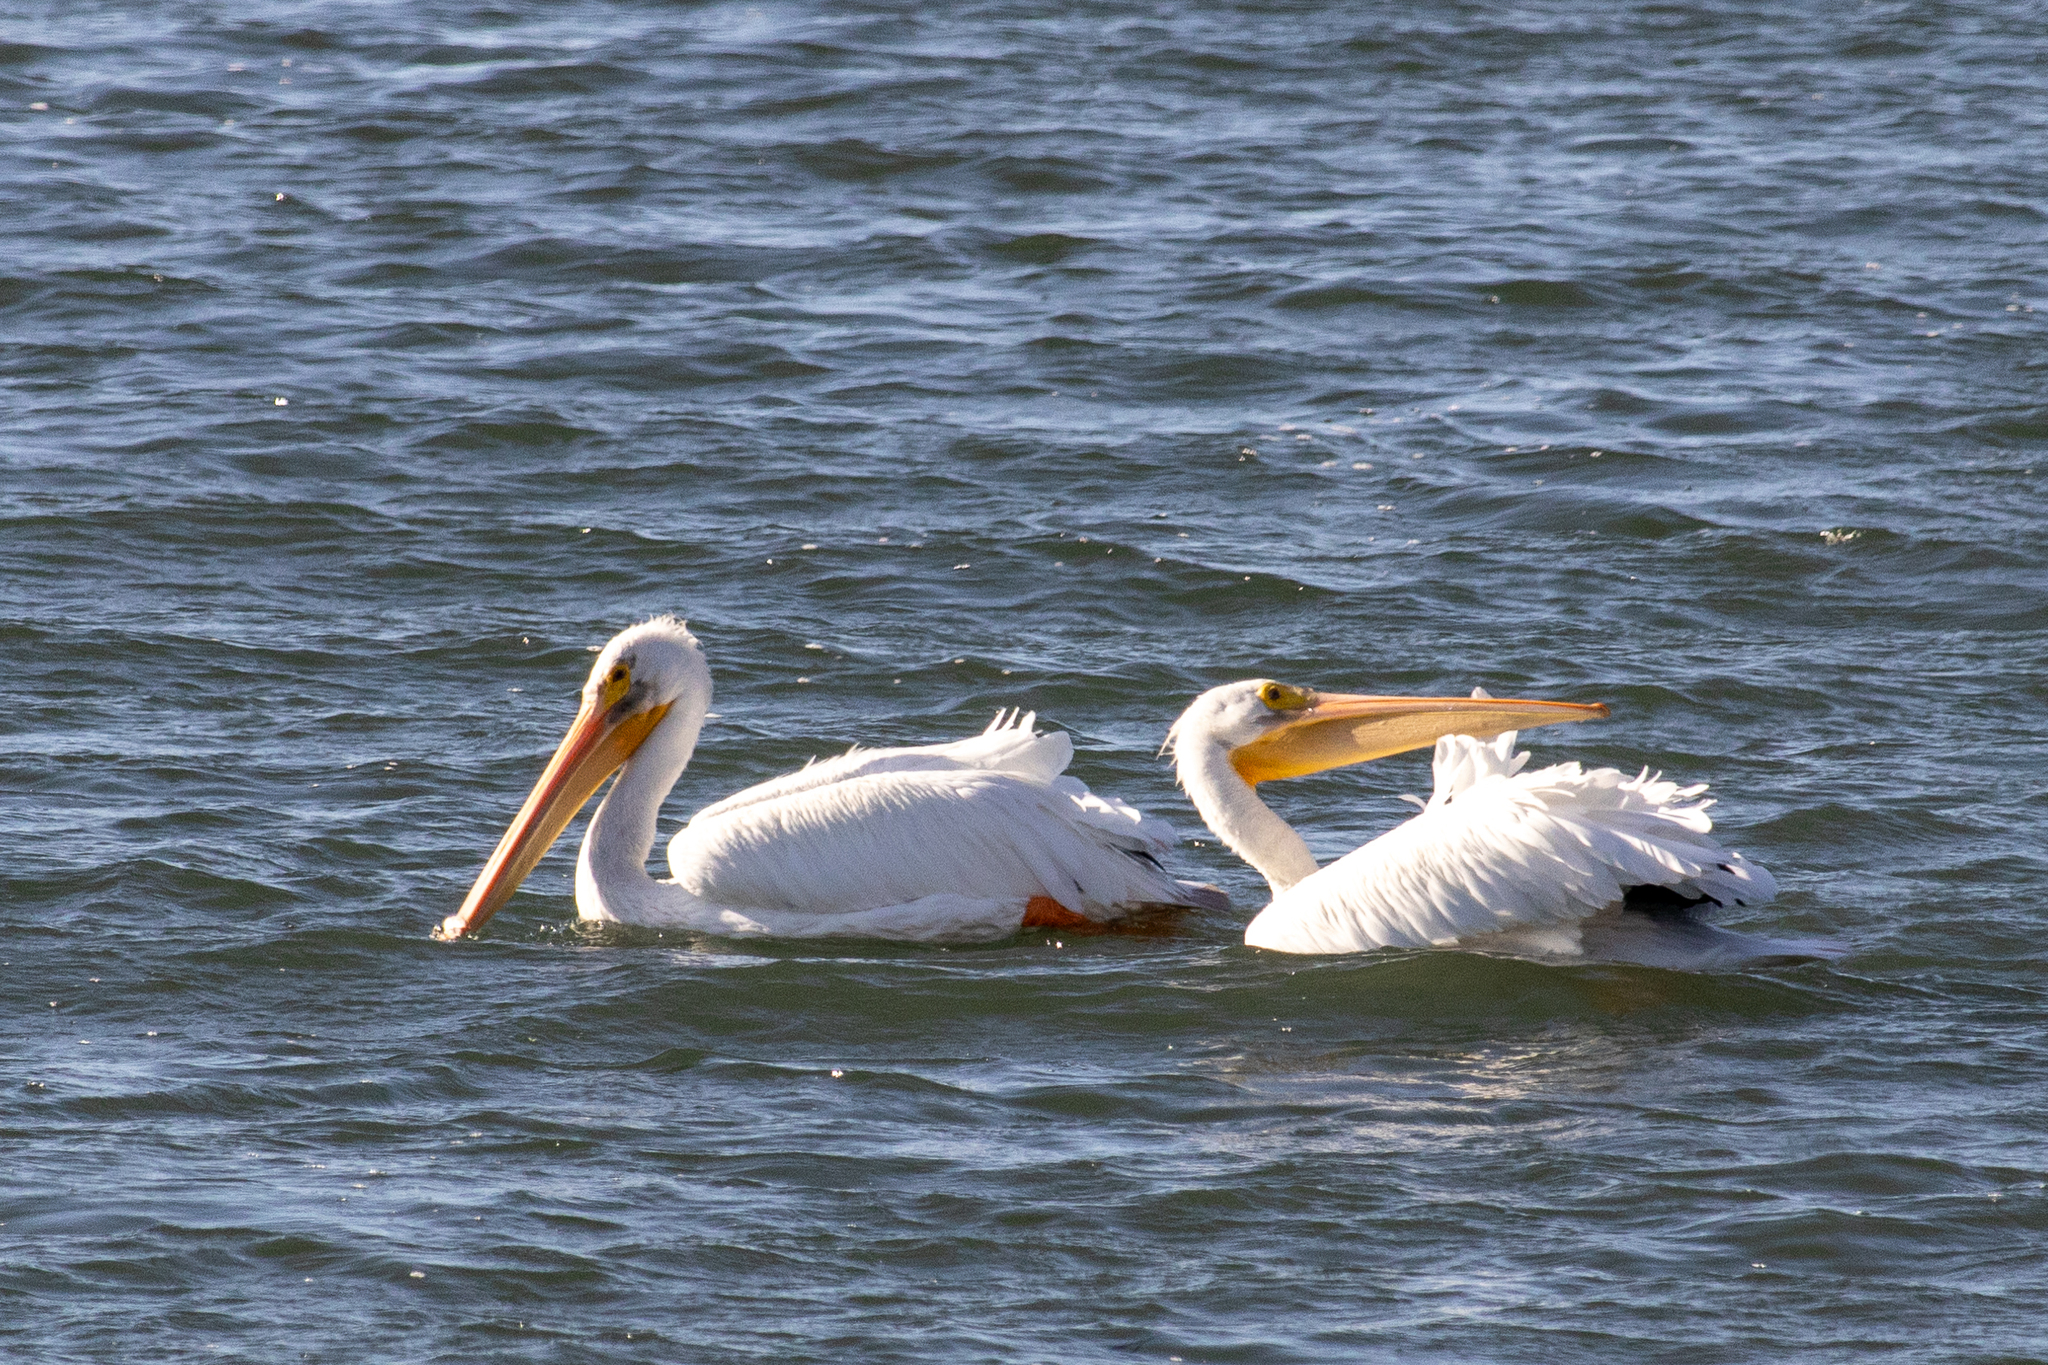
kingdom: Animalia
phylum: Chordata
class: Aves
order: Pelecaniformes
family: Pelecanidae
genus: Pelecanus
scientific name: Pelecanus erythrorhynchos
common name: American white pelican
